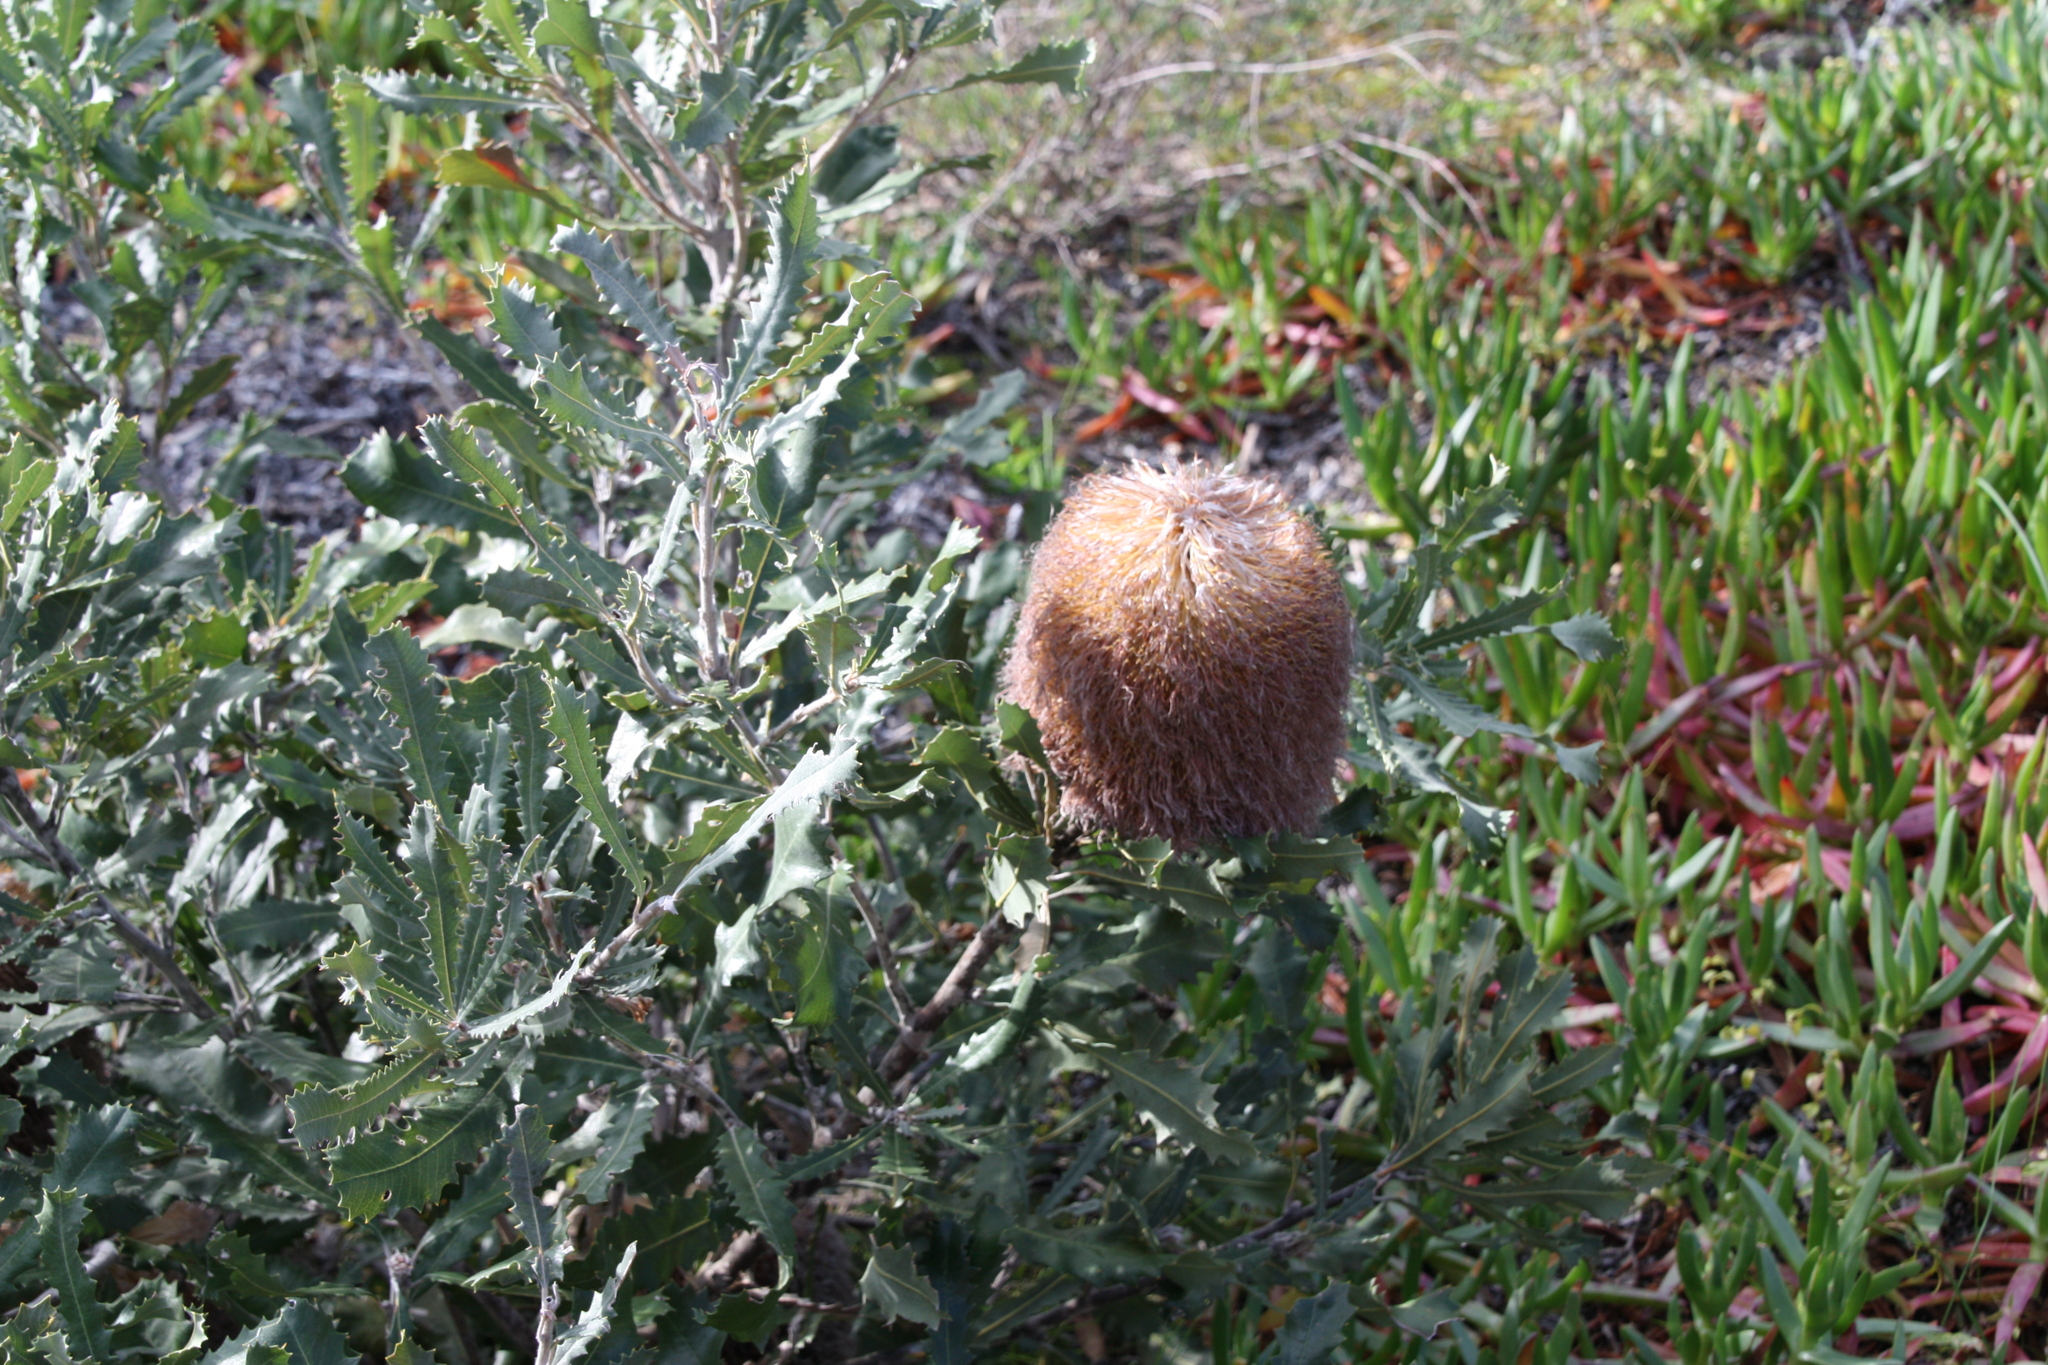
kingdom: Plantae
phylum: Tracheophyta
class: Magnoliopsida
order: Proteales
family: Proteaceae
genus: Banksia
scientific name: Banksia baueri
